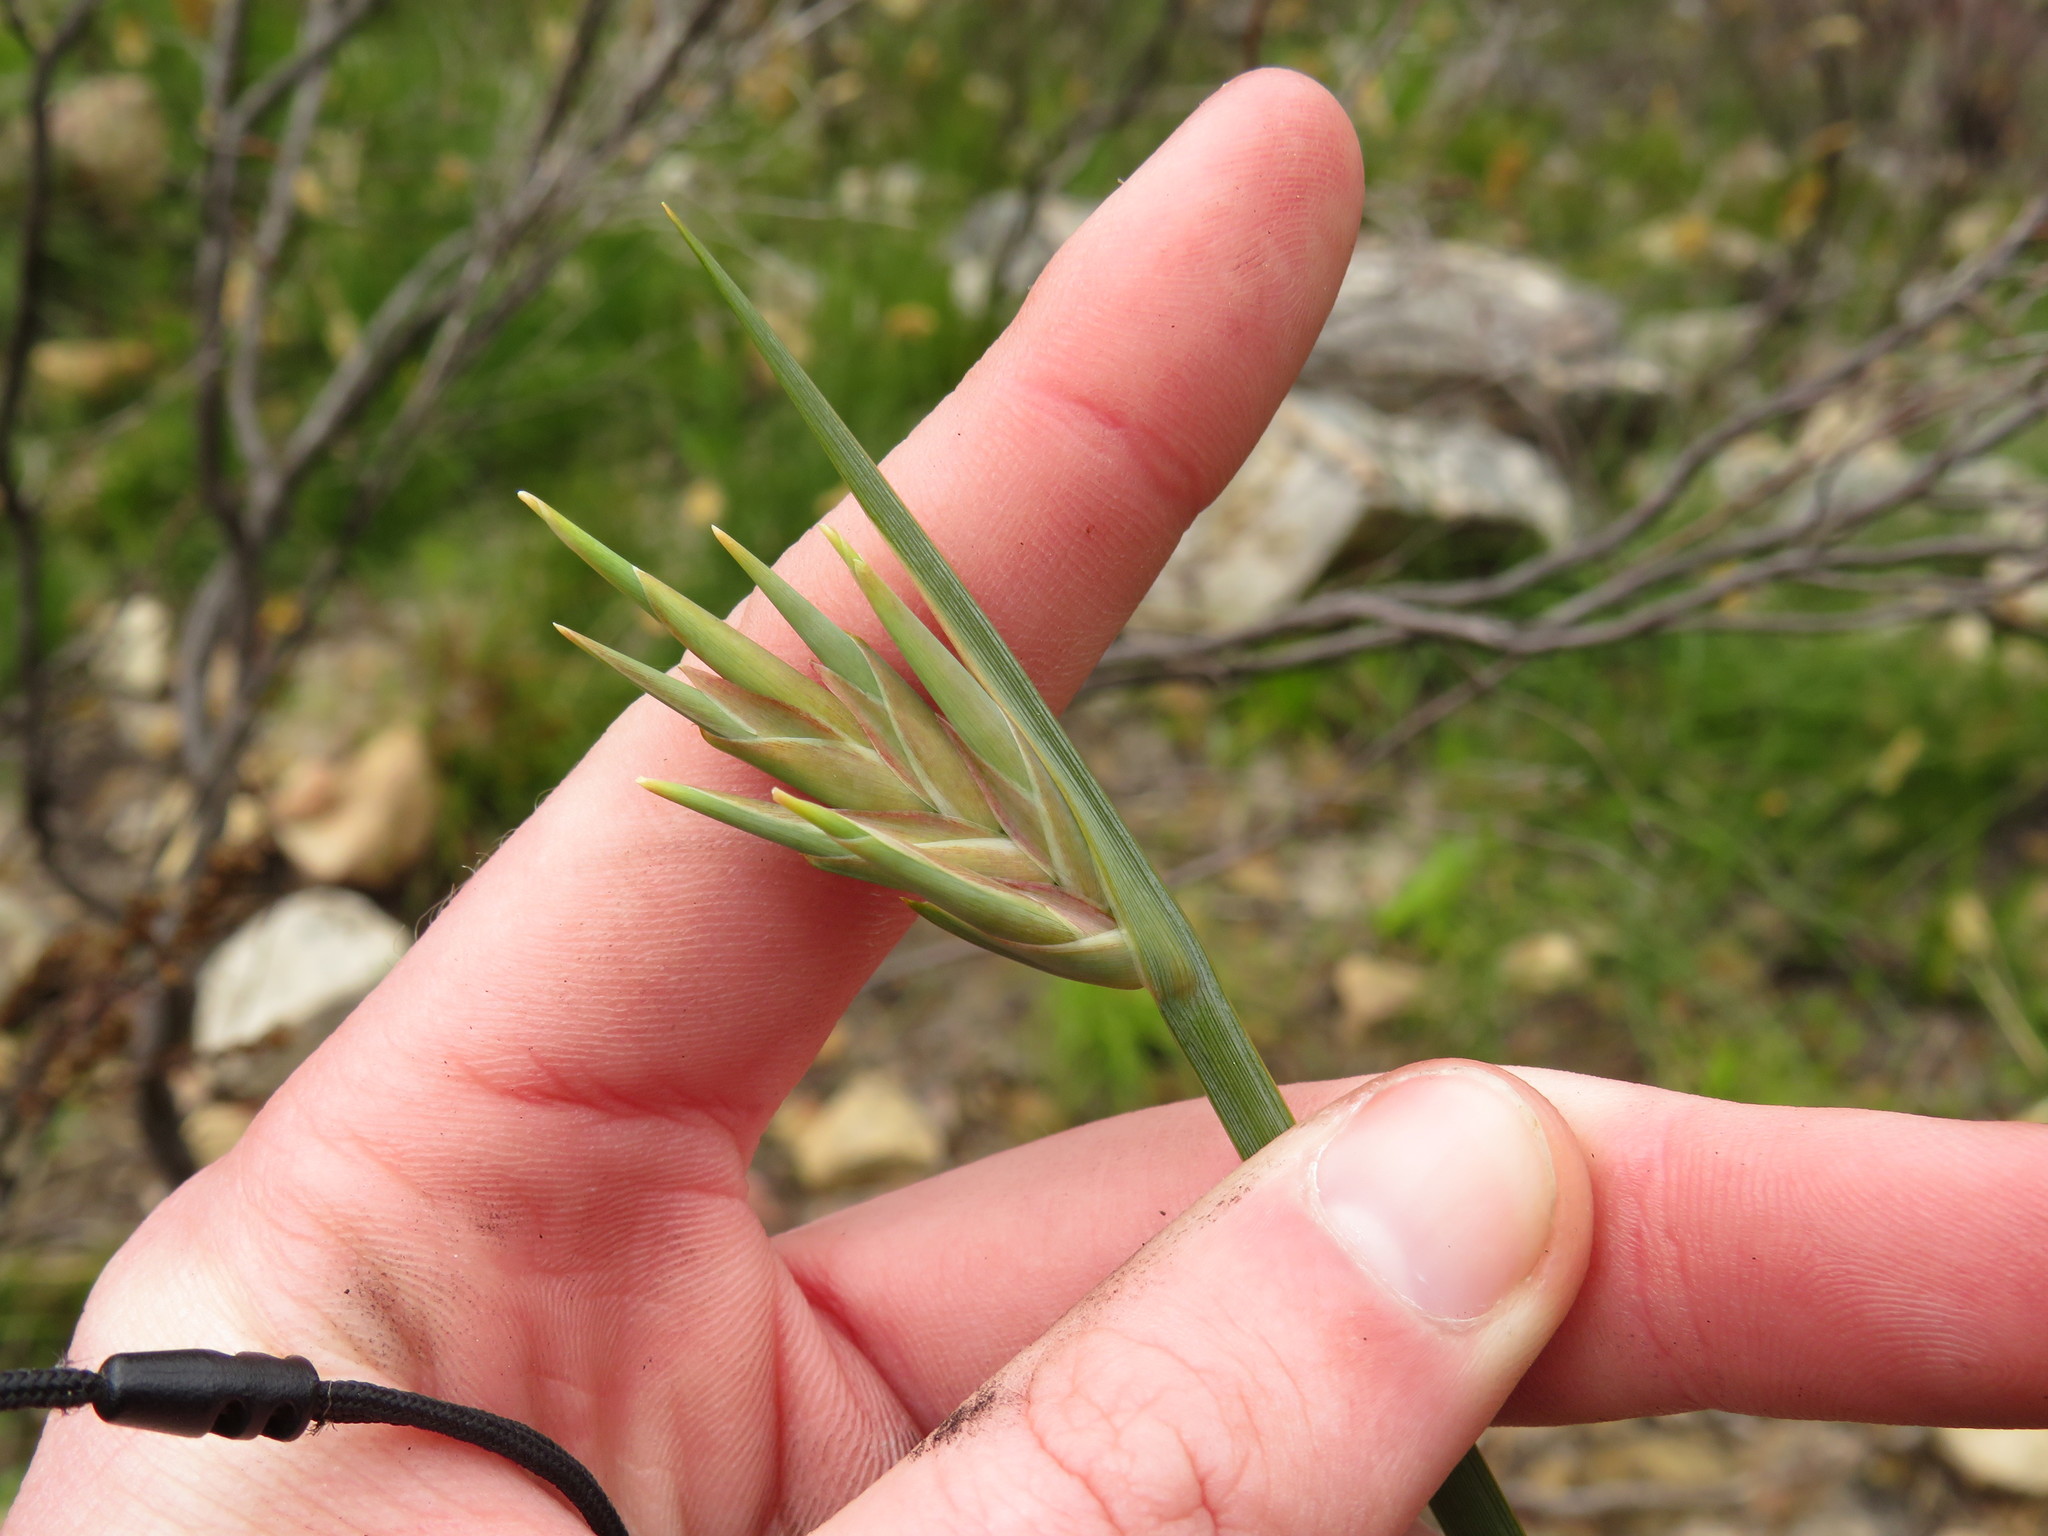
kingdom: Plantae
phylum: Tracheophyta
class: Liliopsida
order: Asparagales
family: Iridaceae
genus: Bobartia
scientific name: Bobartia gladiata
